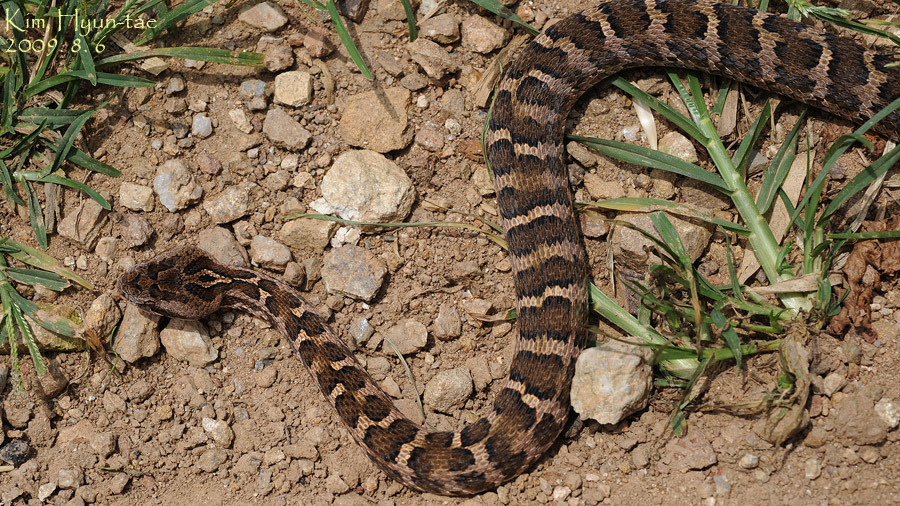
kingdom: Animalia
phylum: Chordata
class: Squamata
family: Viperidae
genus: Gloydius
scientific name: Gloydius intermedius
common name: Central asian pit viper
